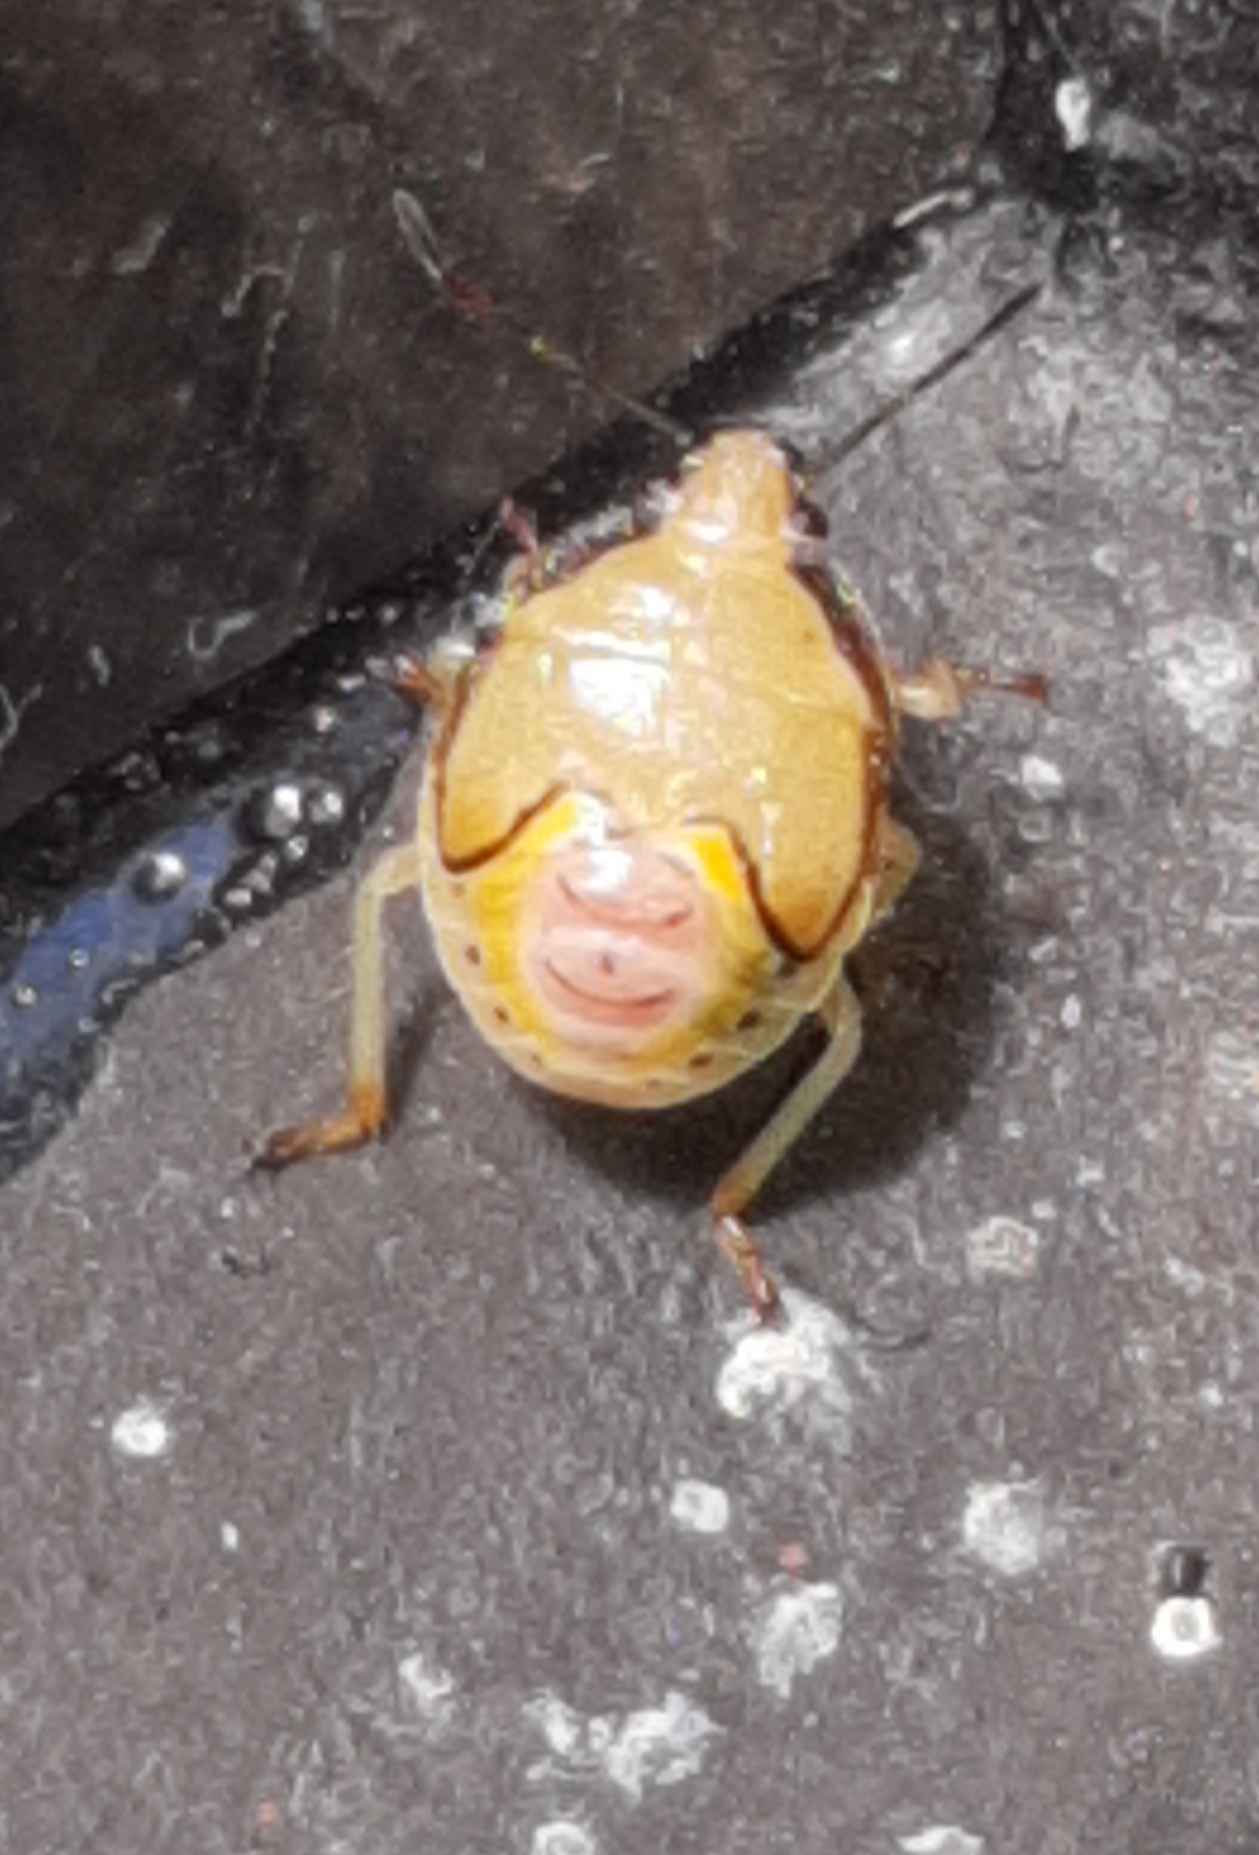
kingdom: Animalia
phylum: Arthropoda
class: Insecta
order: Hemiptera
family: Pentatomidae
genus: Podisus
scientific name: Podisus
